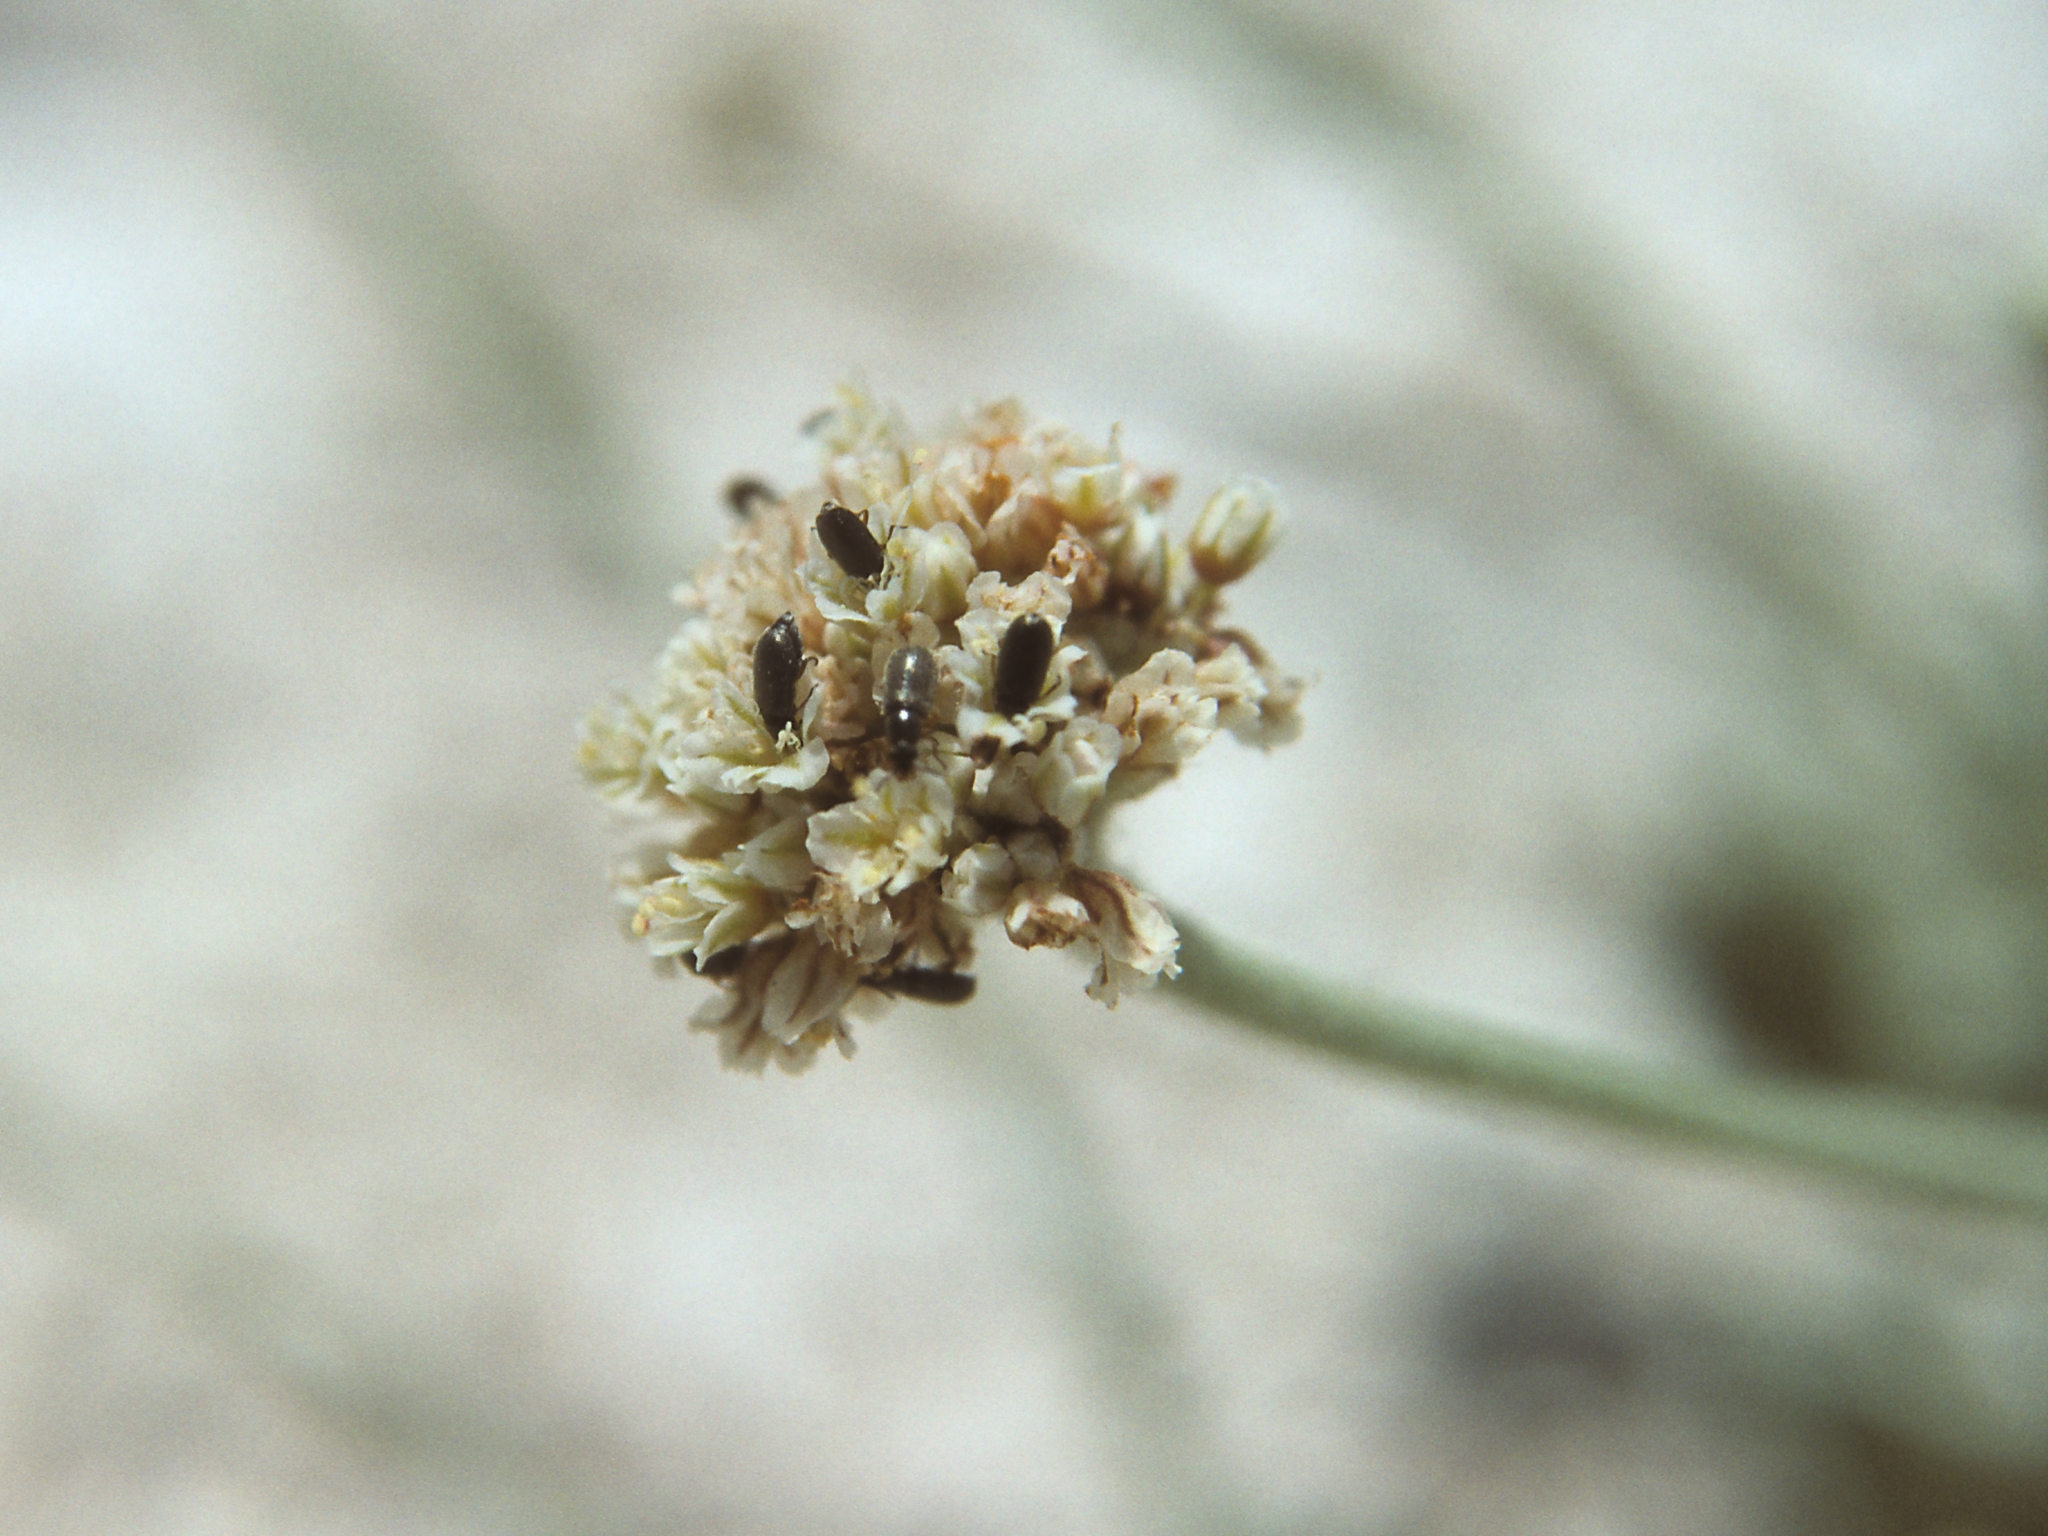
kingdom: Plantae
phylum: Tracheophyta
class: Magnoliopsida
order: Caryophyllales
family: Polygonaceae
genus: Eriogonum
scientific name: Eriogonum diatomaceum
